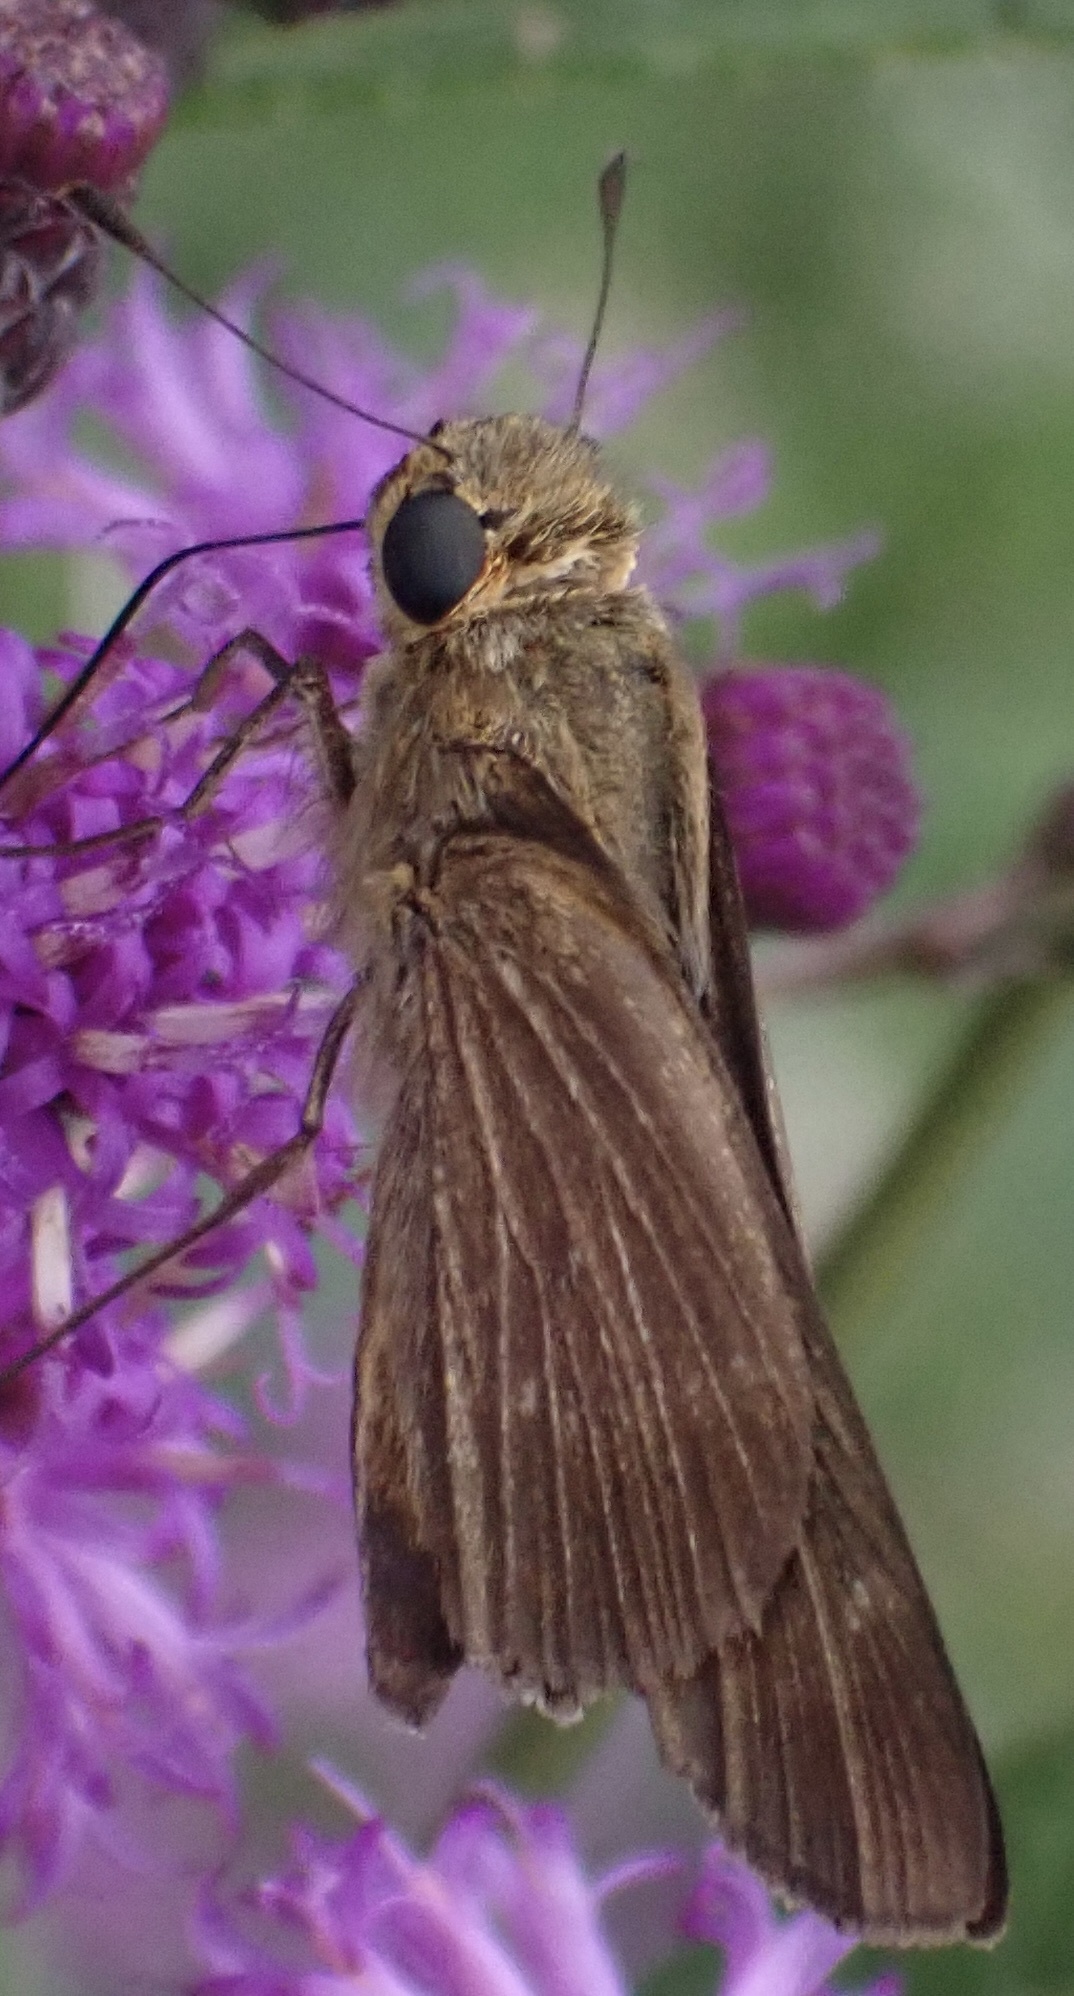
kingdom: Animalia
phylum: Arthropoda
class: Insecta
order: Lepidoptera
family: Hesperiidae
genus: Panoquina
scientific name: Panoquina ocola
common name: Ocola skipper
